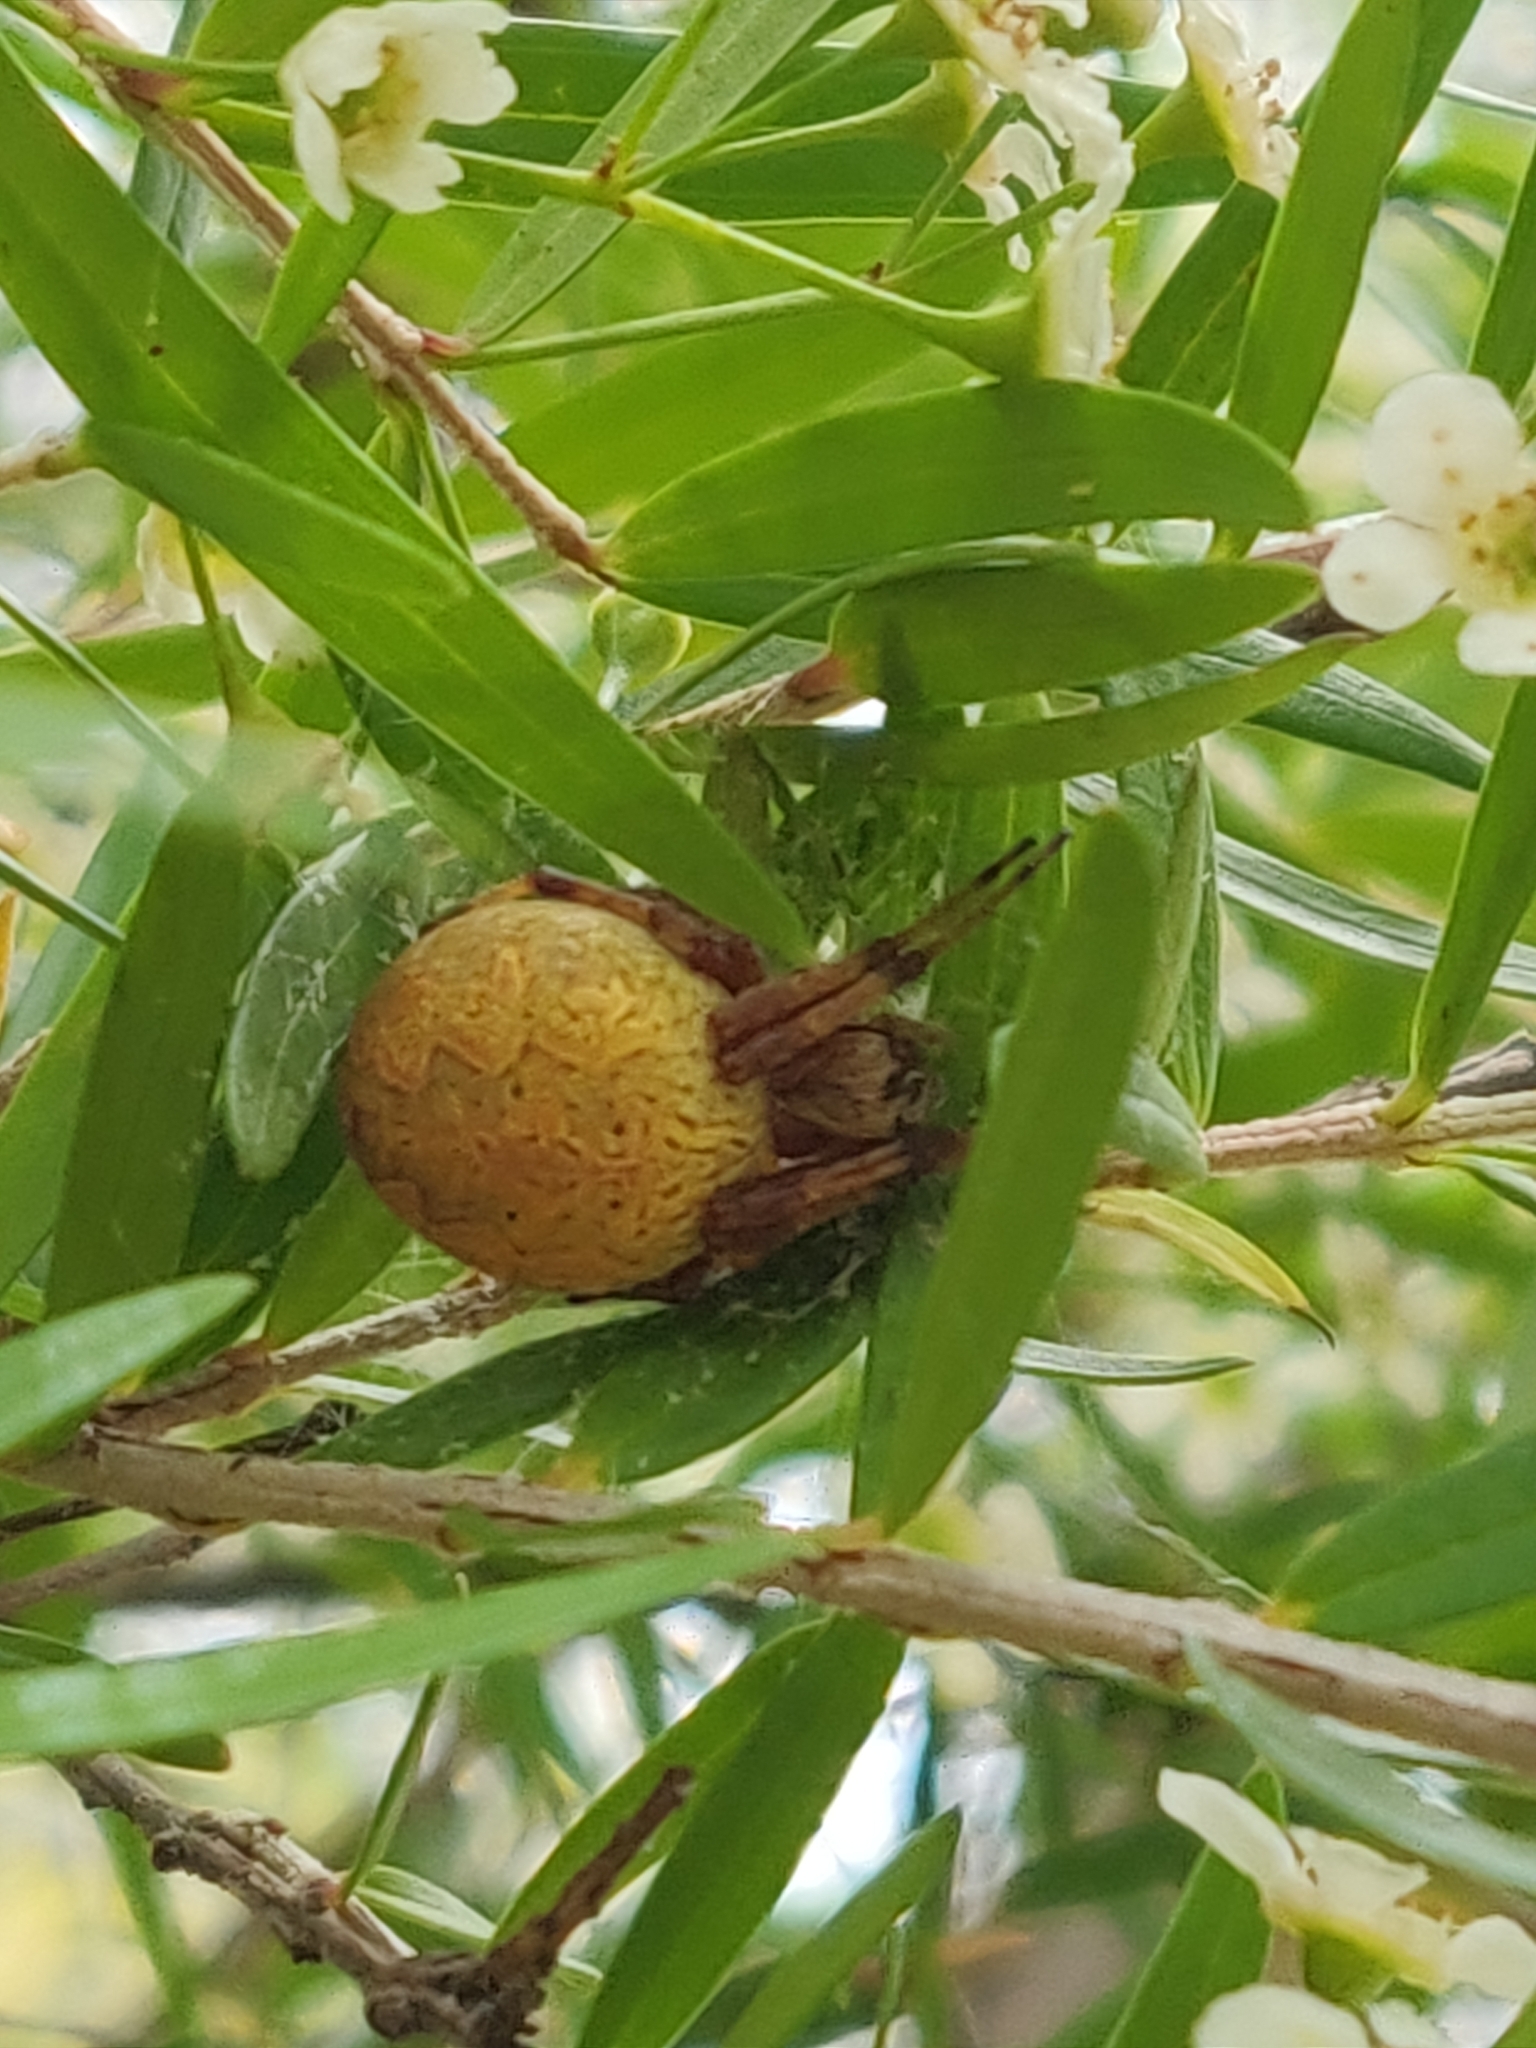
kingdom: Animalia
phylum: Arthropoda
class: Arachnida
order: Araneae
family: Araneidae
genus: Salsa
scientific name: Salsa fuliginata
